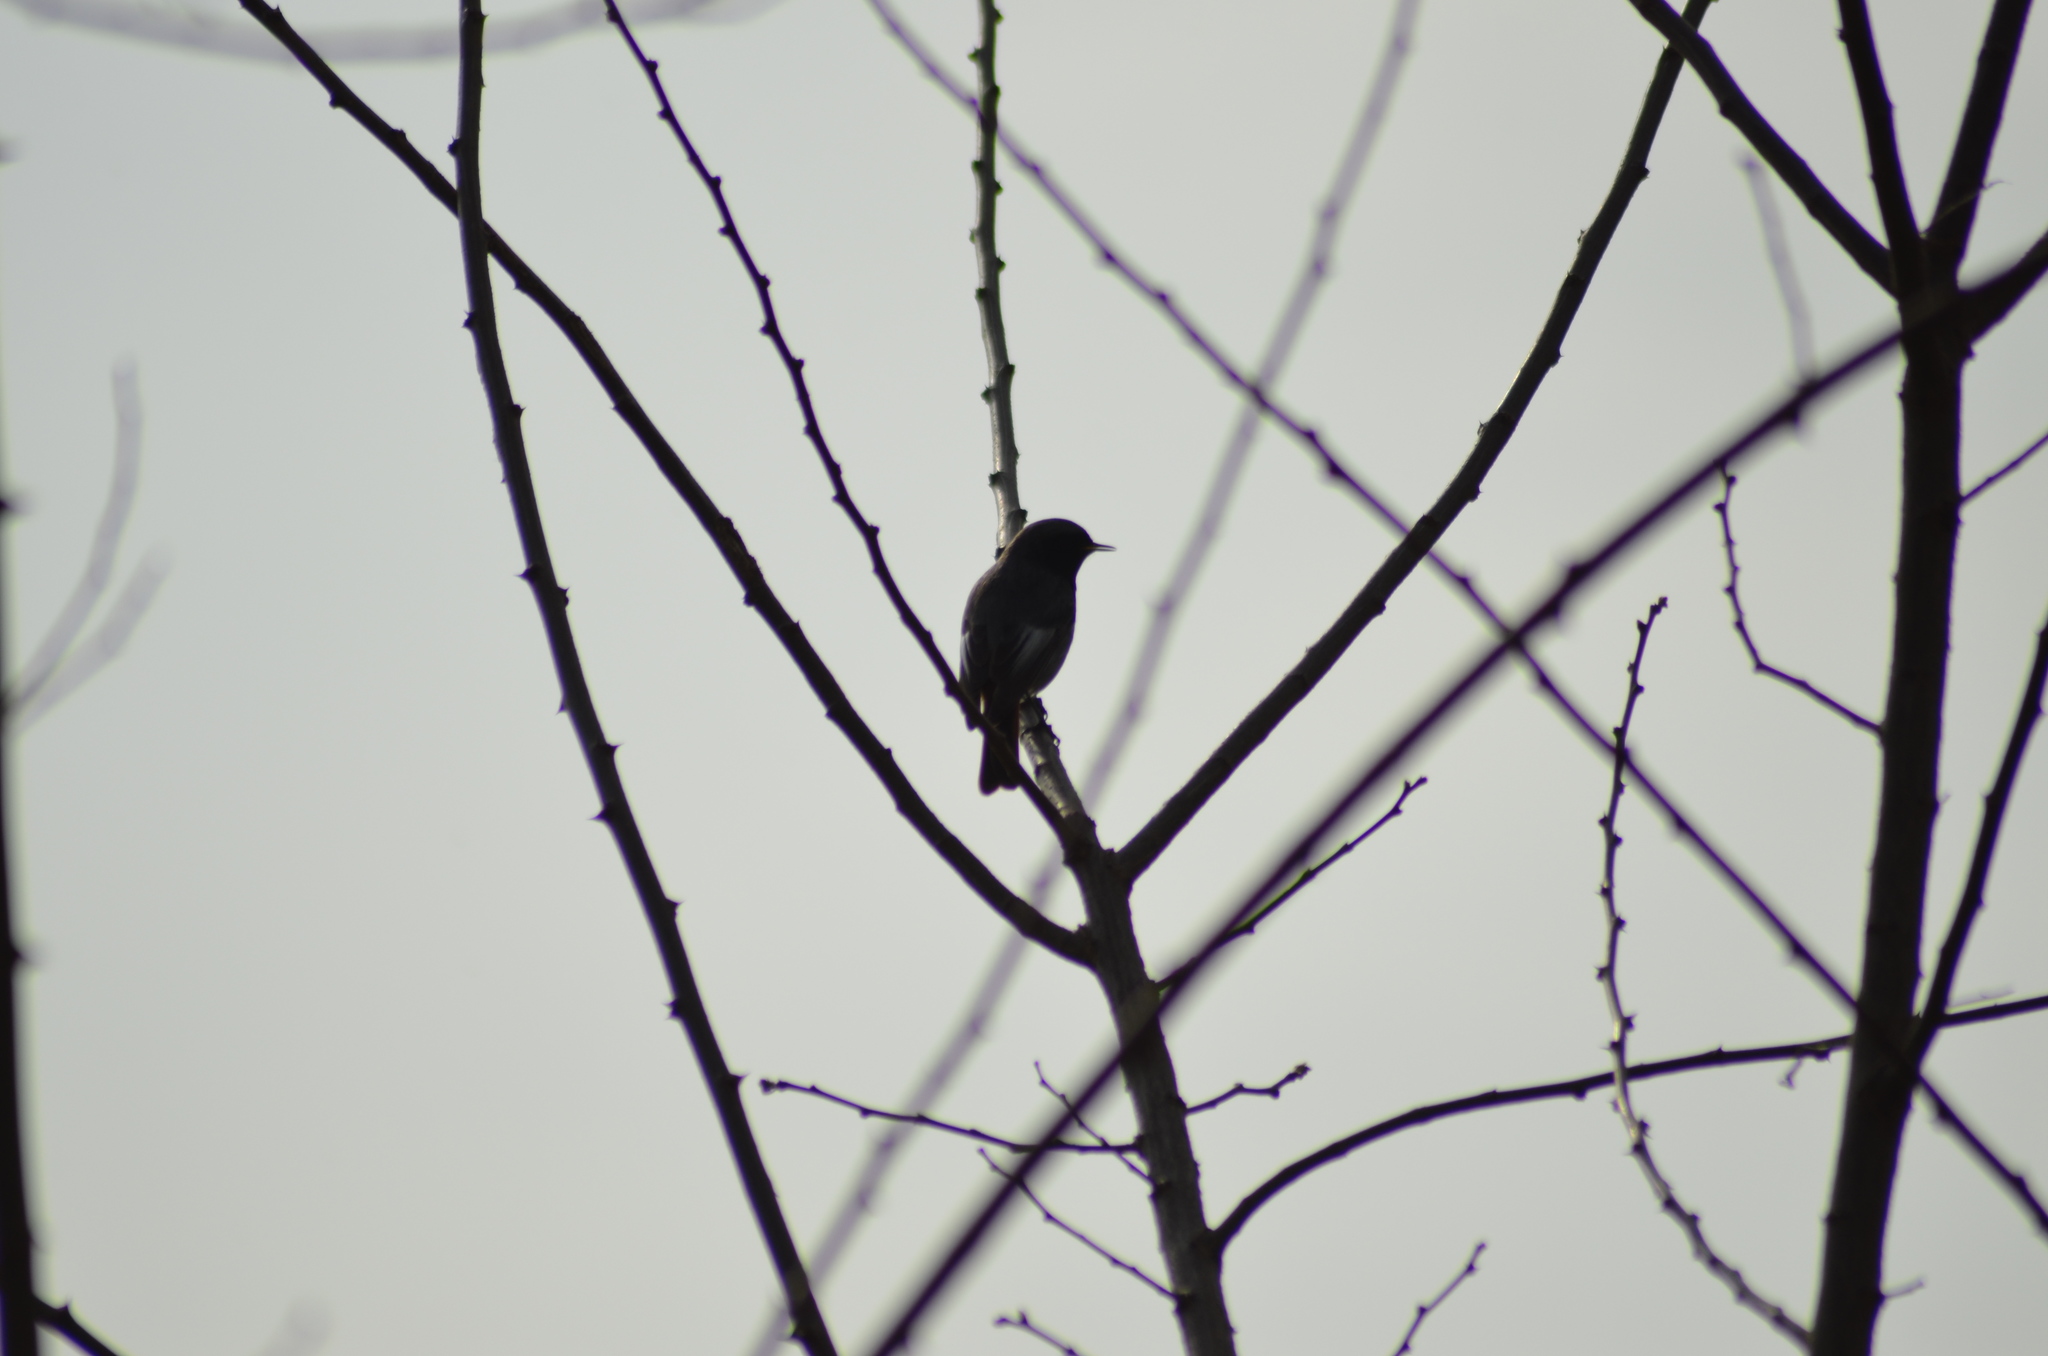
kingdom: Animalia
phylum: Chordata
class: Aves
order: Passeriformes
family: Muscicapidae
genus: Phoenicurus
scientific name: Phoenicurus ochruros
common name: Black redstart
